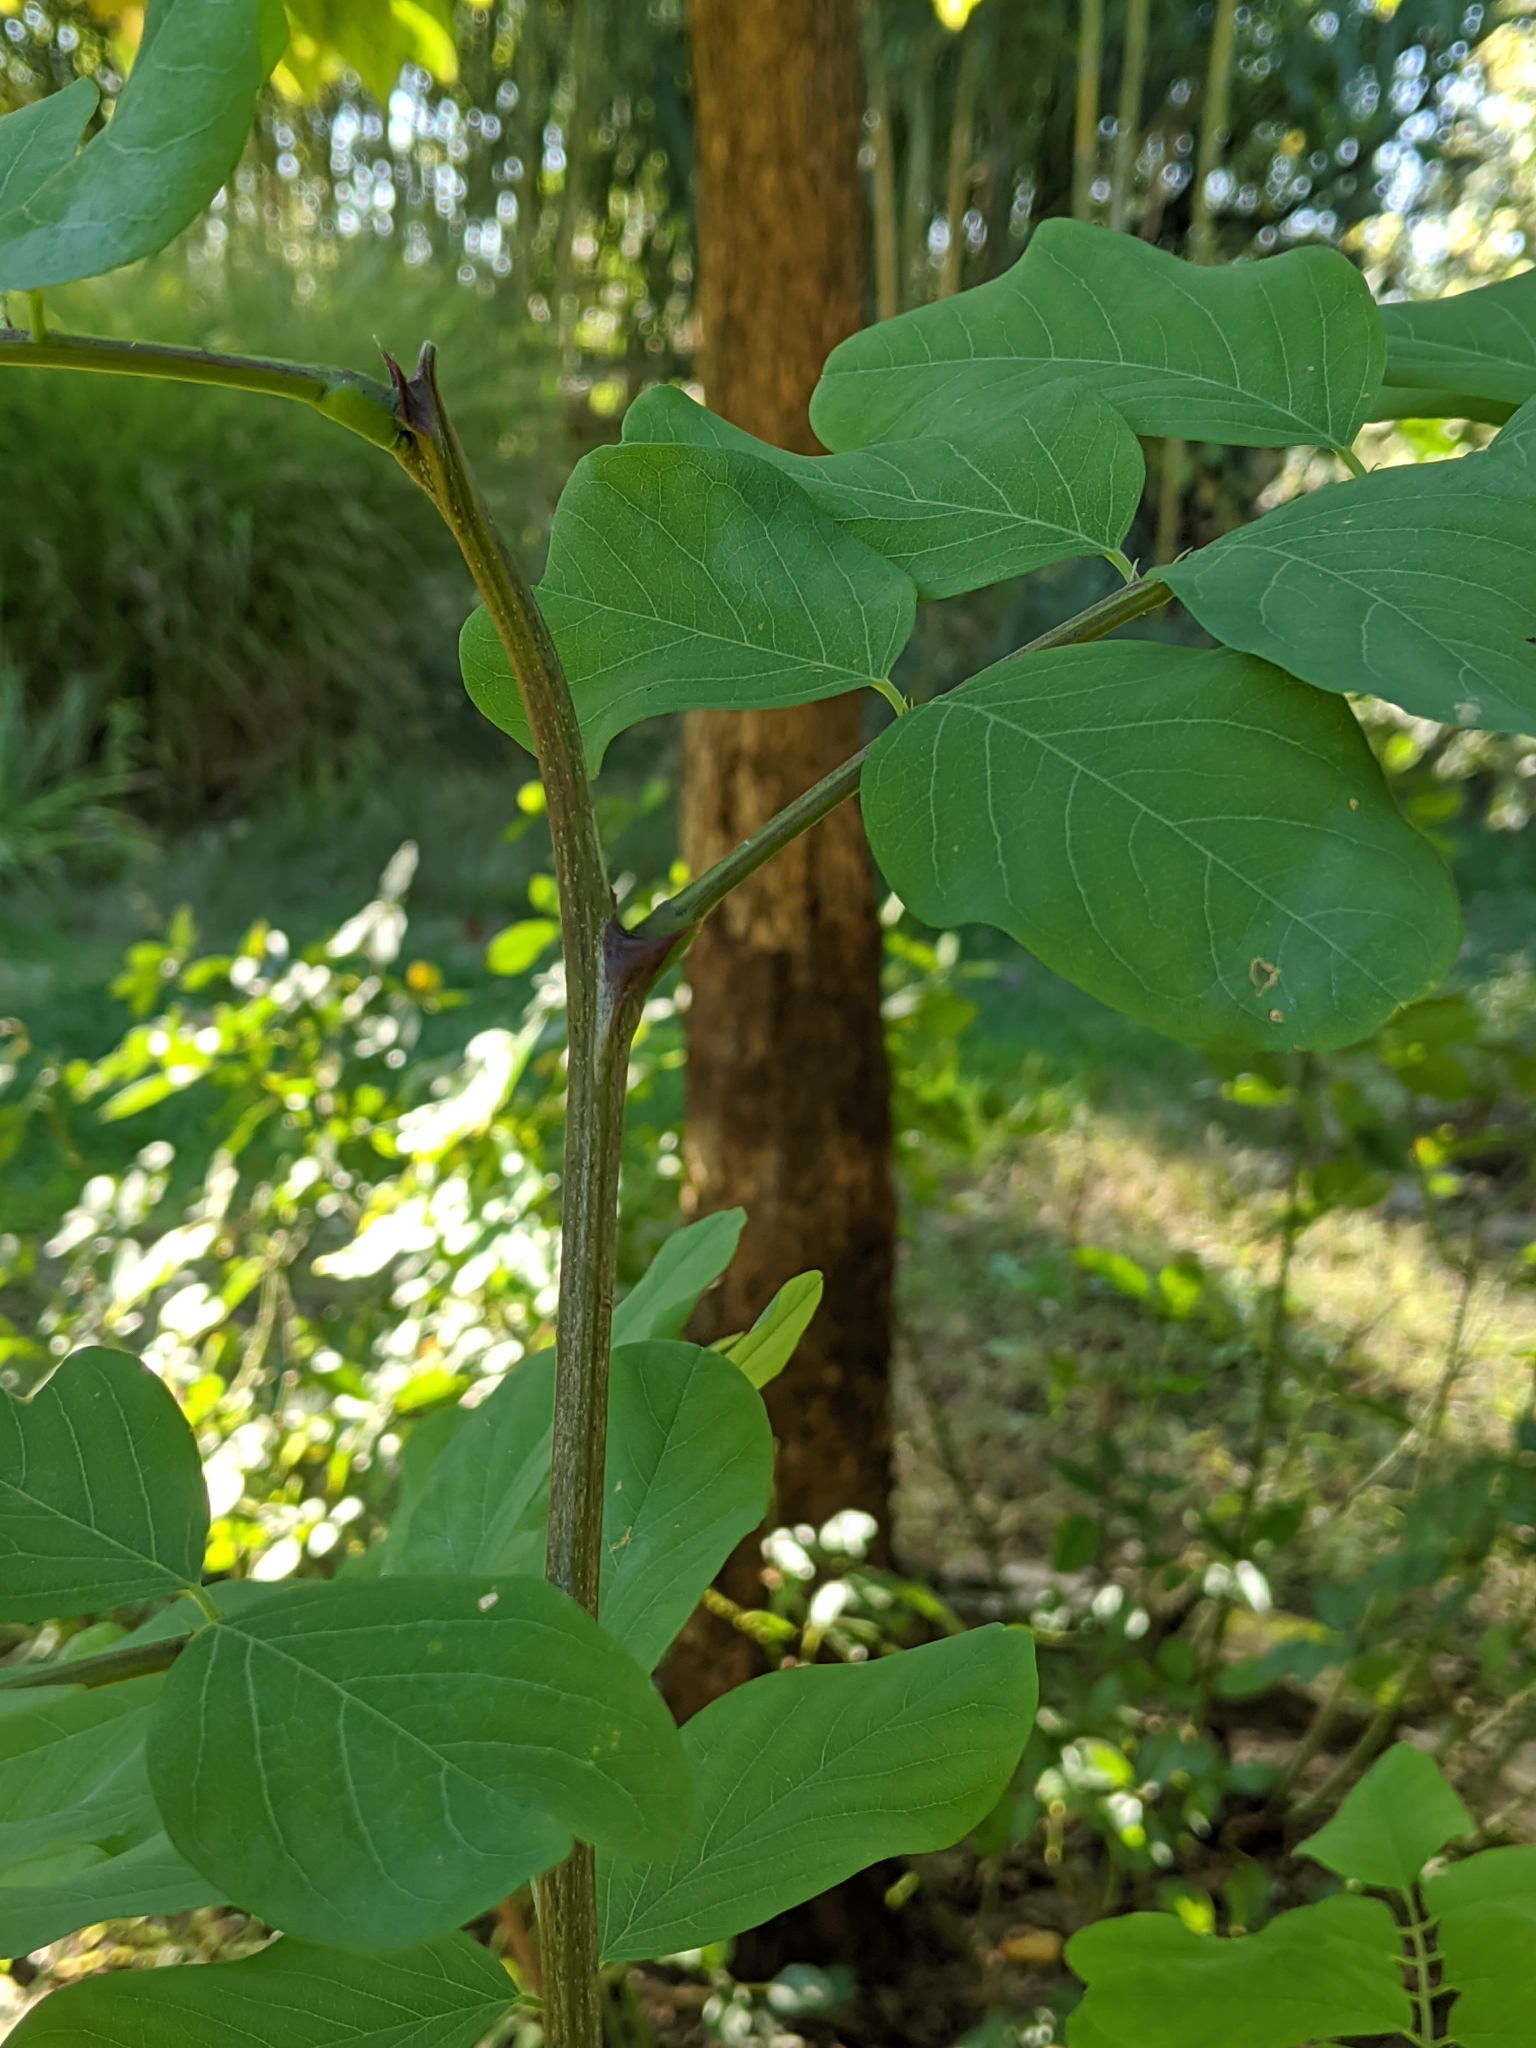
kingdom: Plantae
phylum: Tracheophyta
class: Magnoliopsida
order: Fabales
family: Fabaceae
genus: Robinia
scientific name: Robinia pseudoacacia
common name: Black locust
